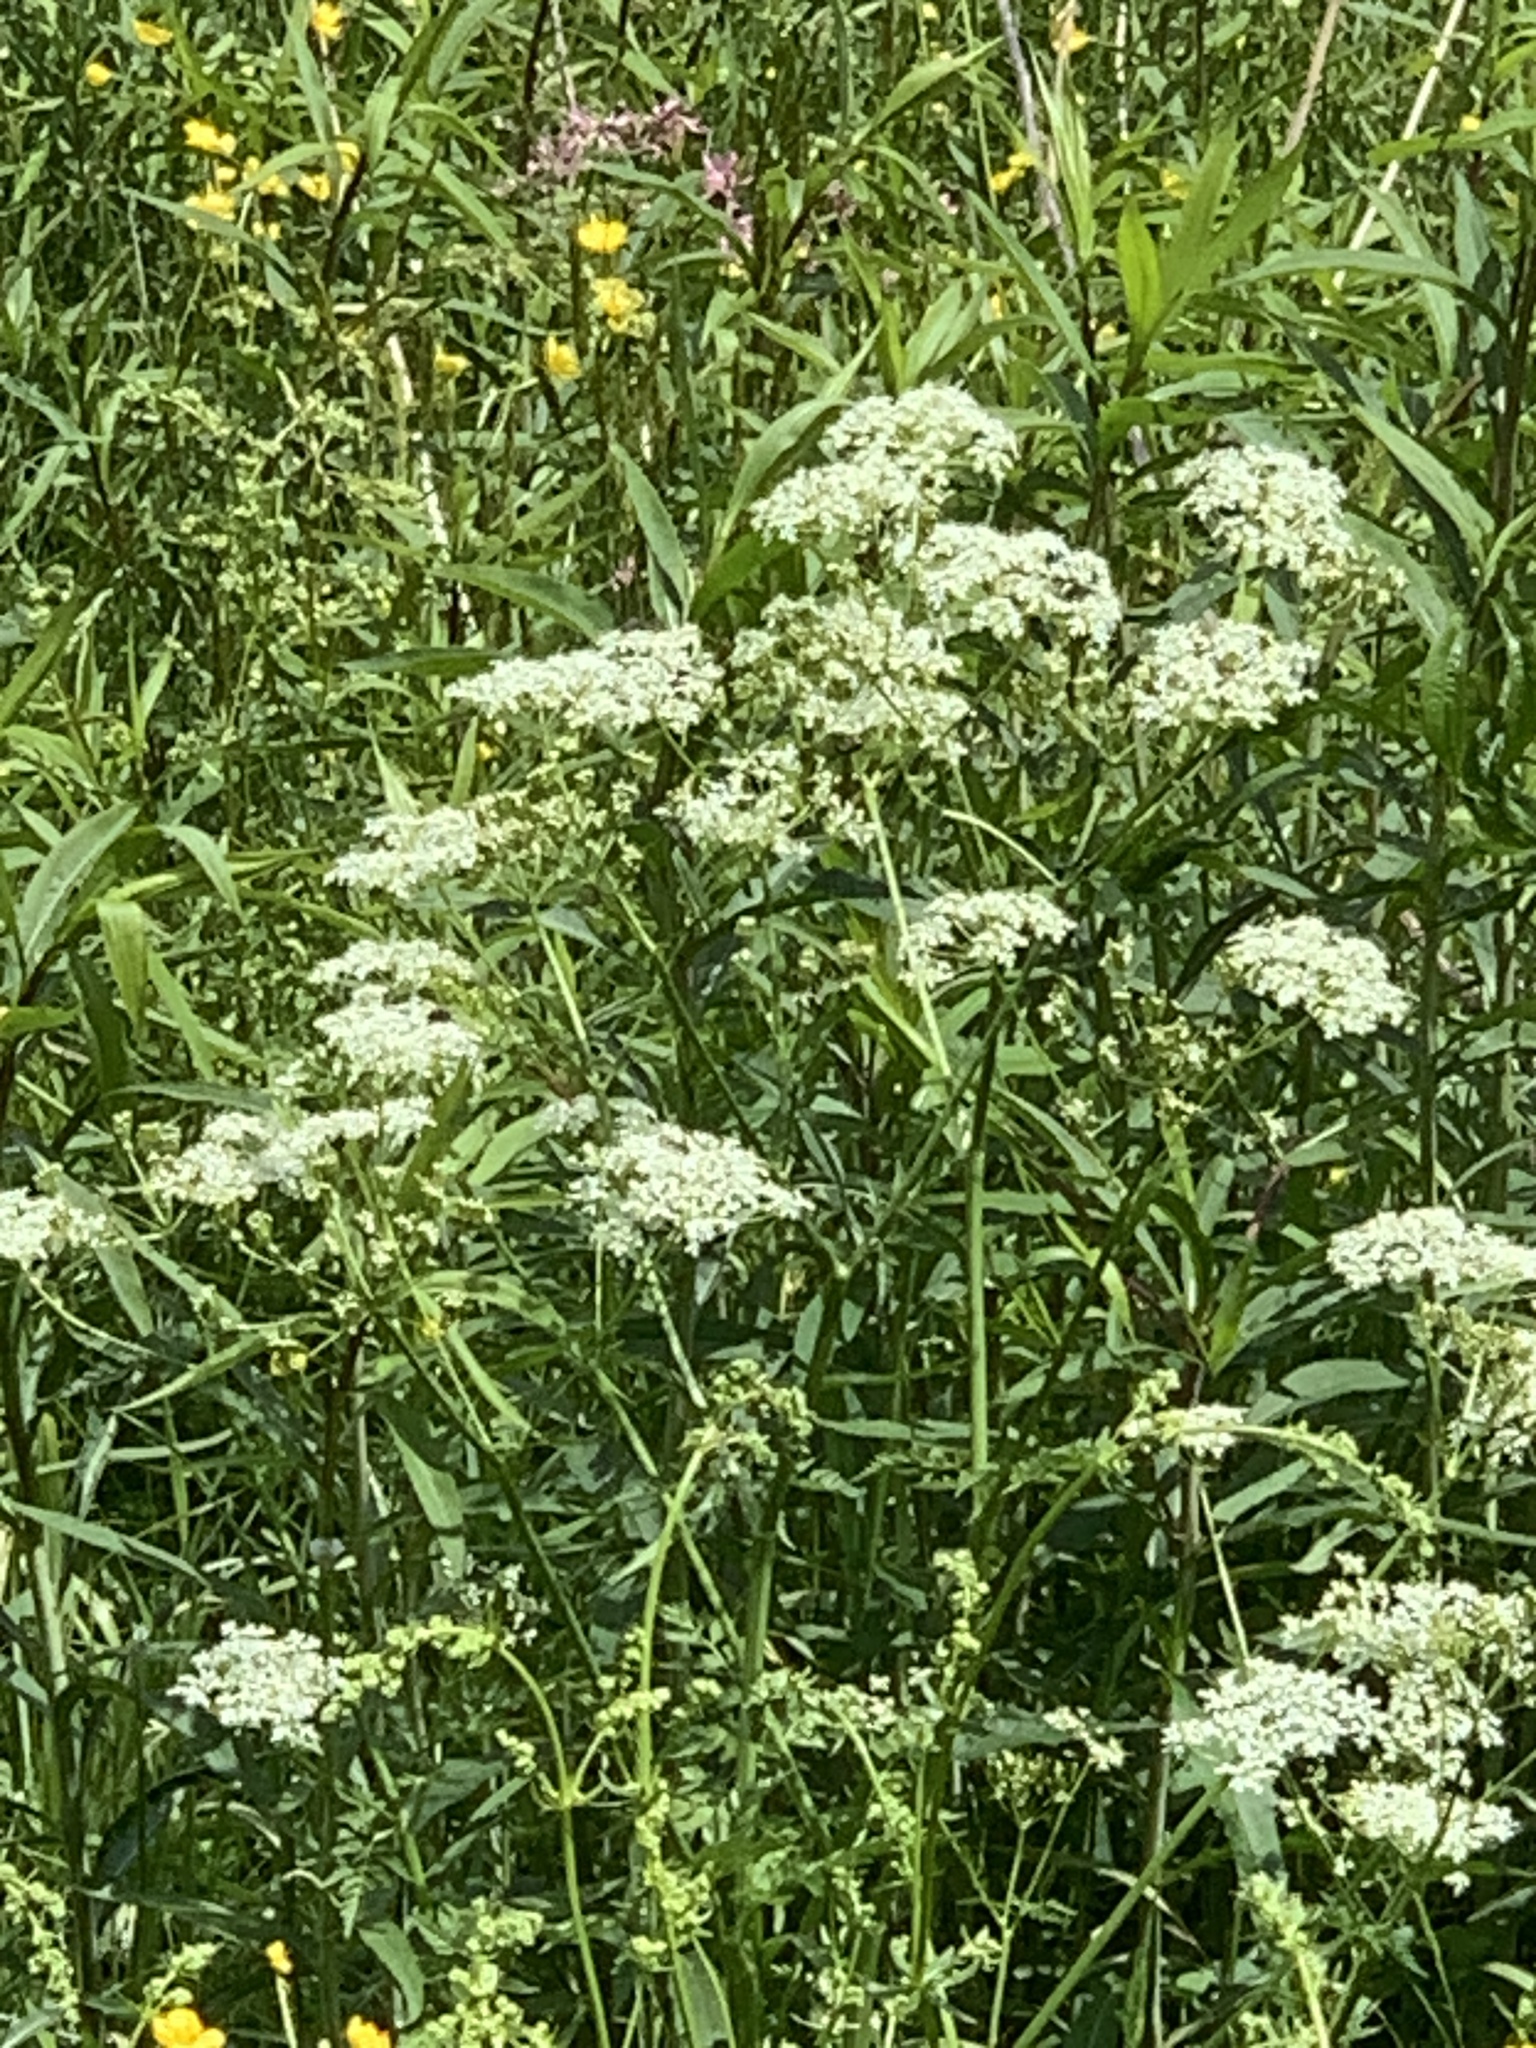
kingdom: Plantae
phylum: Tracheophyta
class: Magnoliopsida
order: Apiales
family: Apiaceae
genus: Anthriscus
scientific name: Anthriscus sylvestris
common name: Cow parsley
